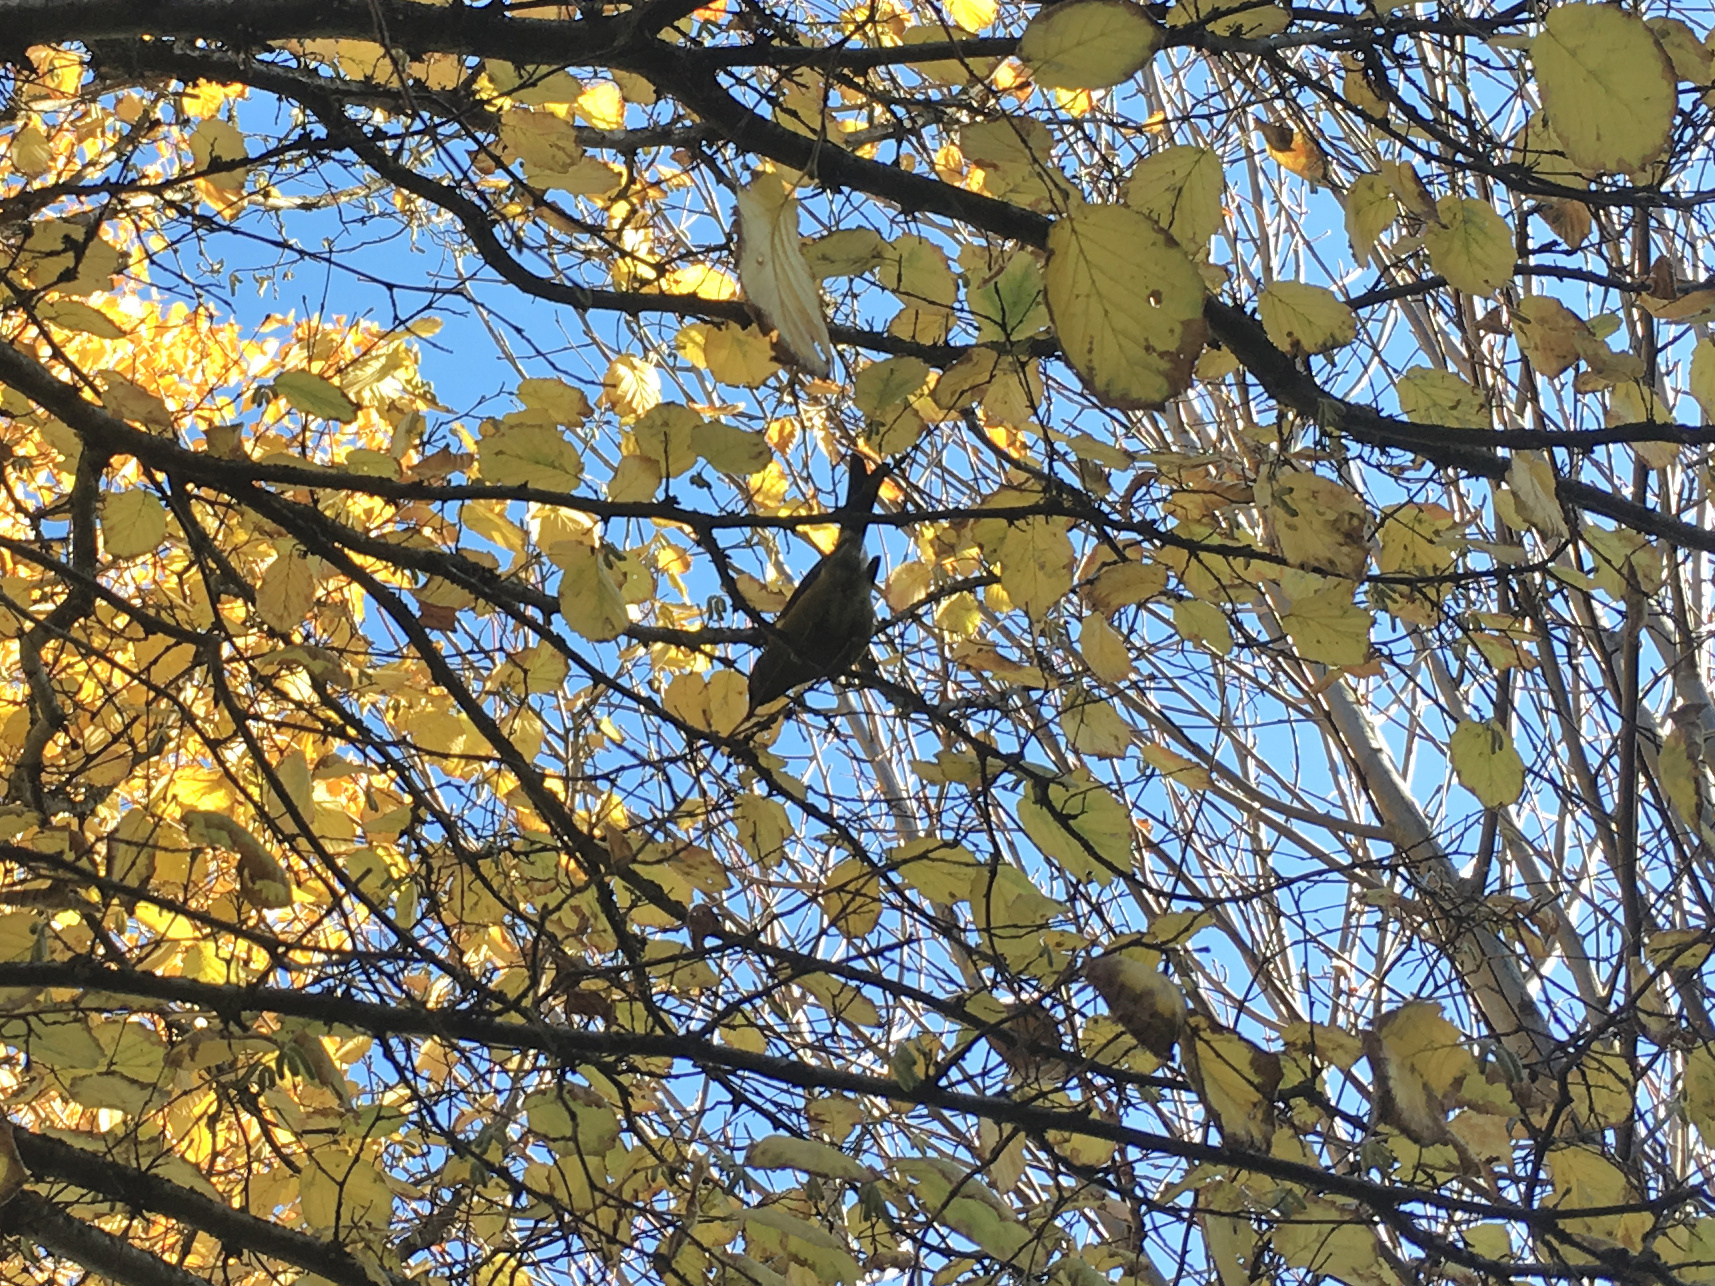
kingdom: Animalia
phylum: Chordata
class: Aves
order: Passeriformes
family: Meliphagidae
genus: Anthornis
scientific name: Anthornis melanura
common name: New zealand bellbird
